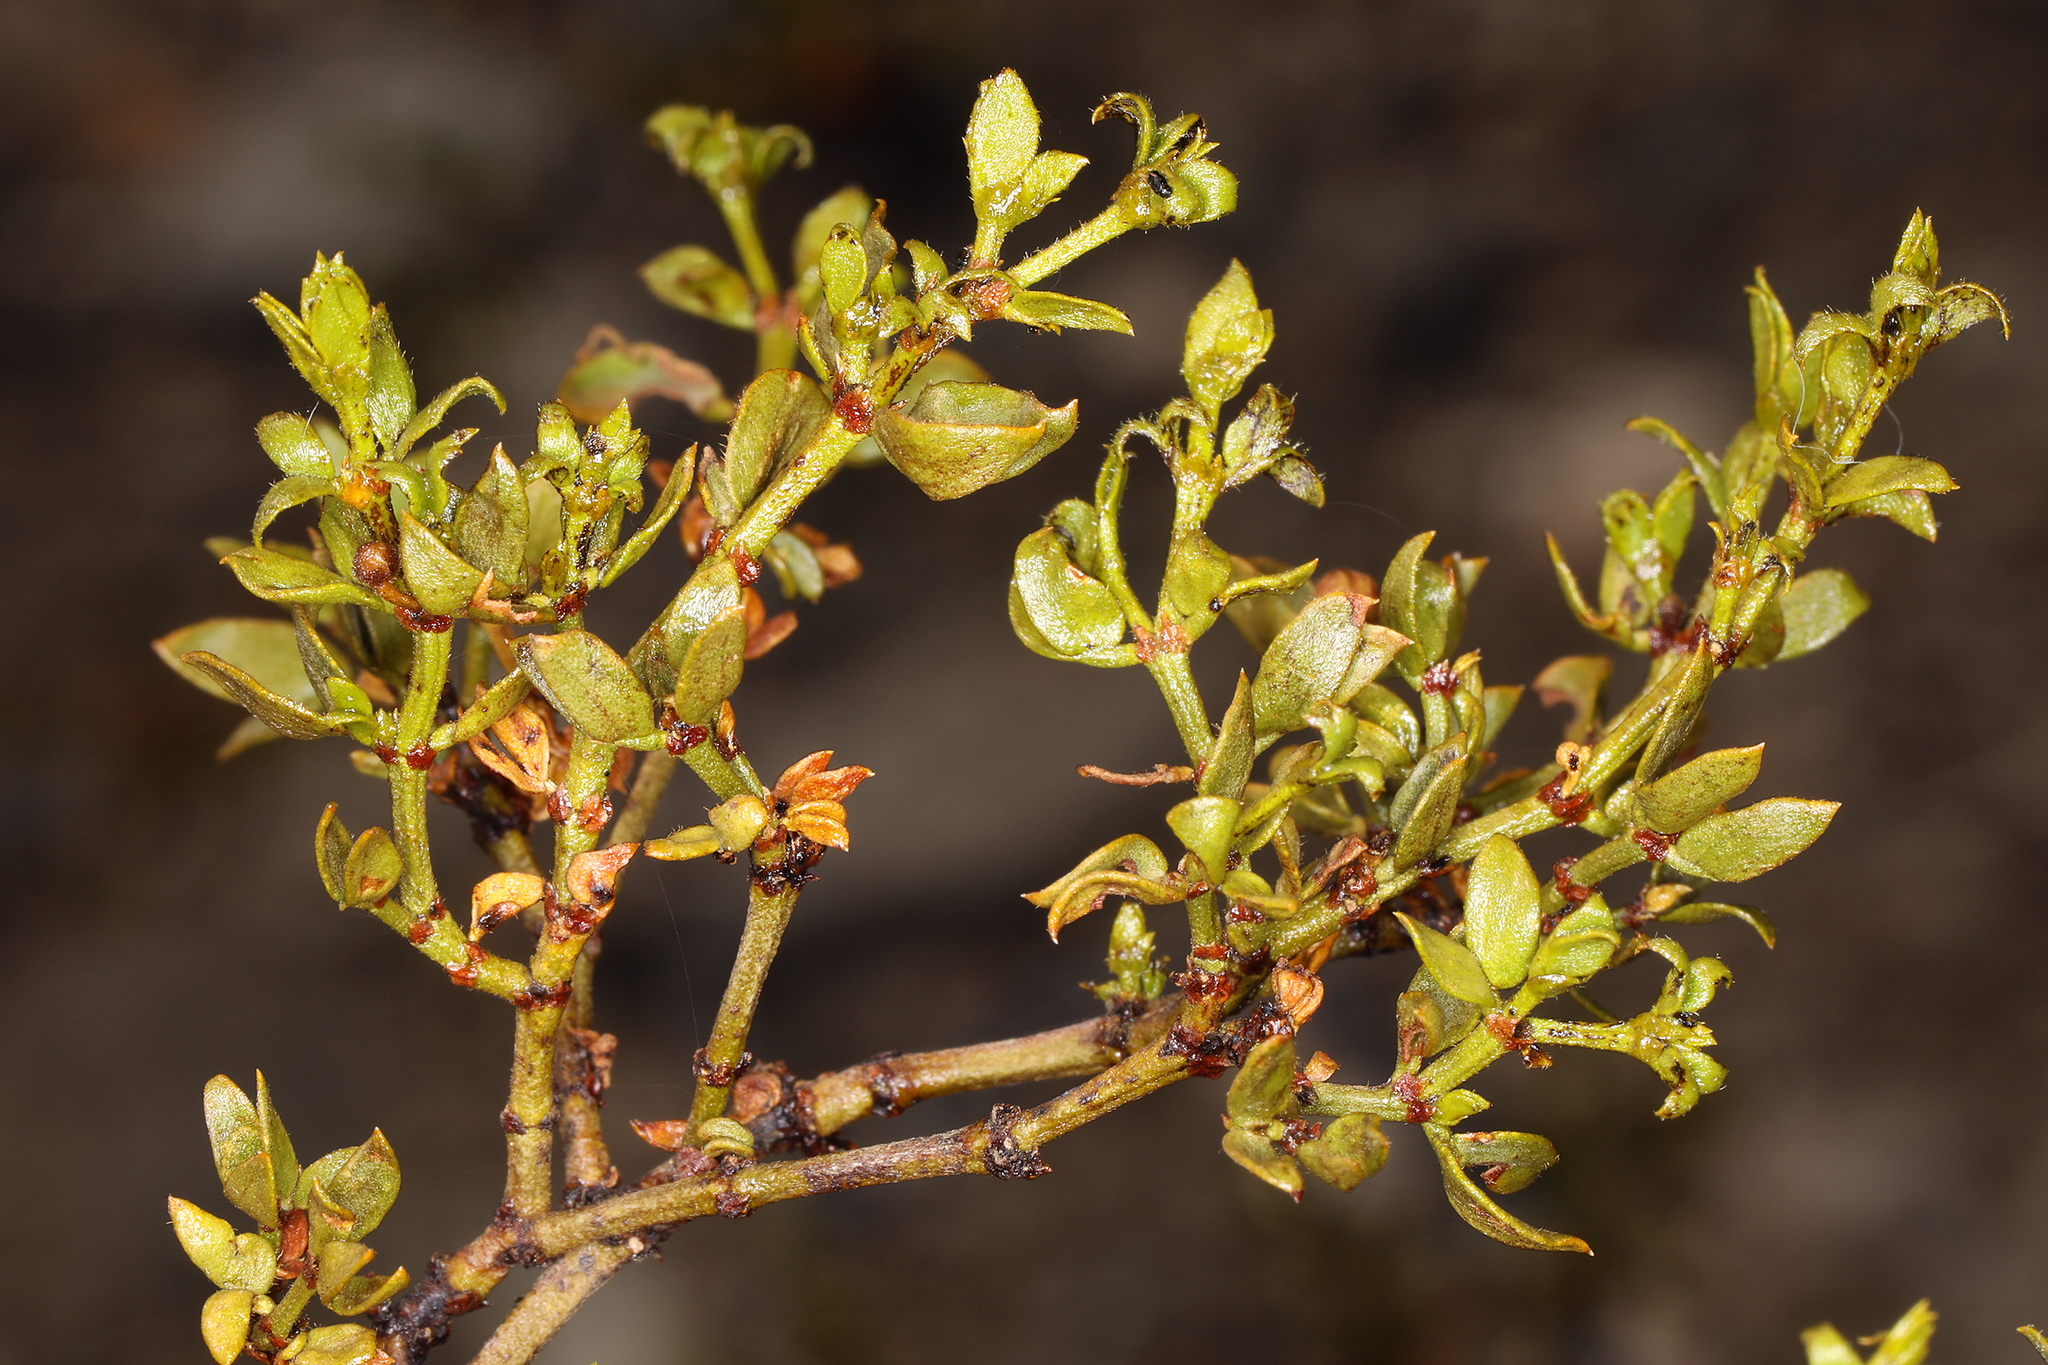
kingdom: Plantae
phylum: Tracheophyta
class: Magnoliopsida
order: Zygophyllales
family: Zygophyllaceae
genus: Larrea
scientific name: Larrea tridentata
